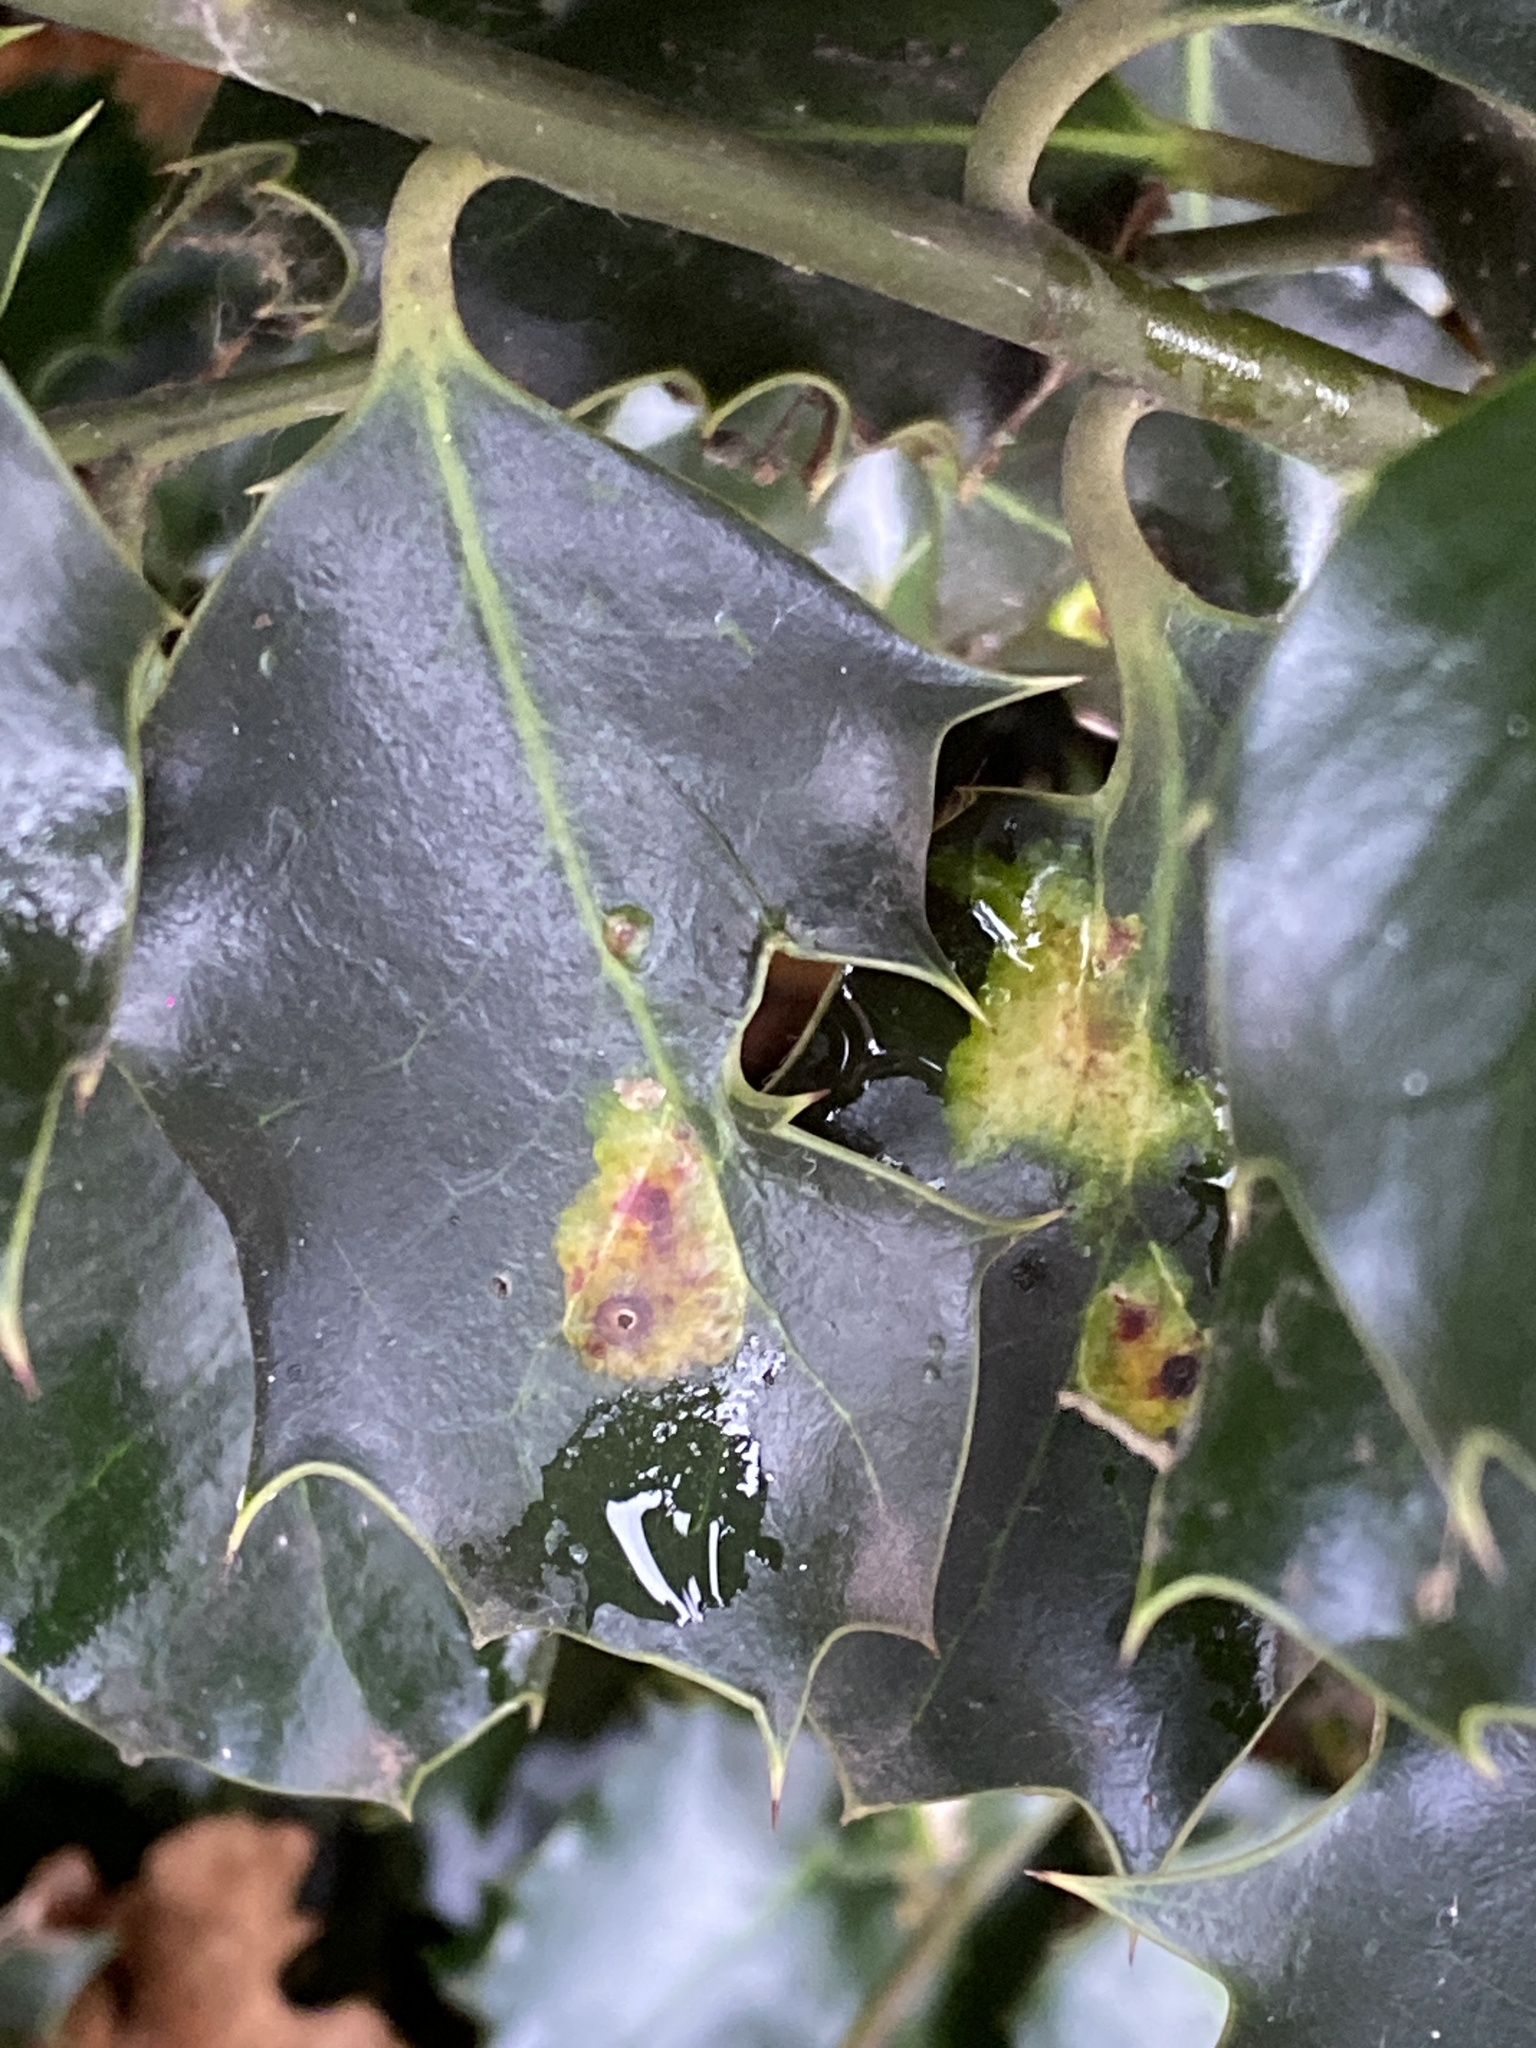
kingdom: Animalia
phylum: Arthropoda
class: Insecta
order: Diptera
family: Agromyzidae
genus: Phytomyza
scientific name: Phytomyza ilicis
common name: Holly leafminer
